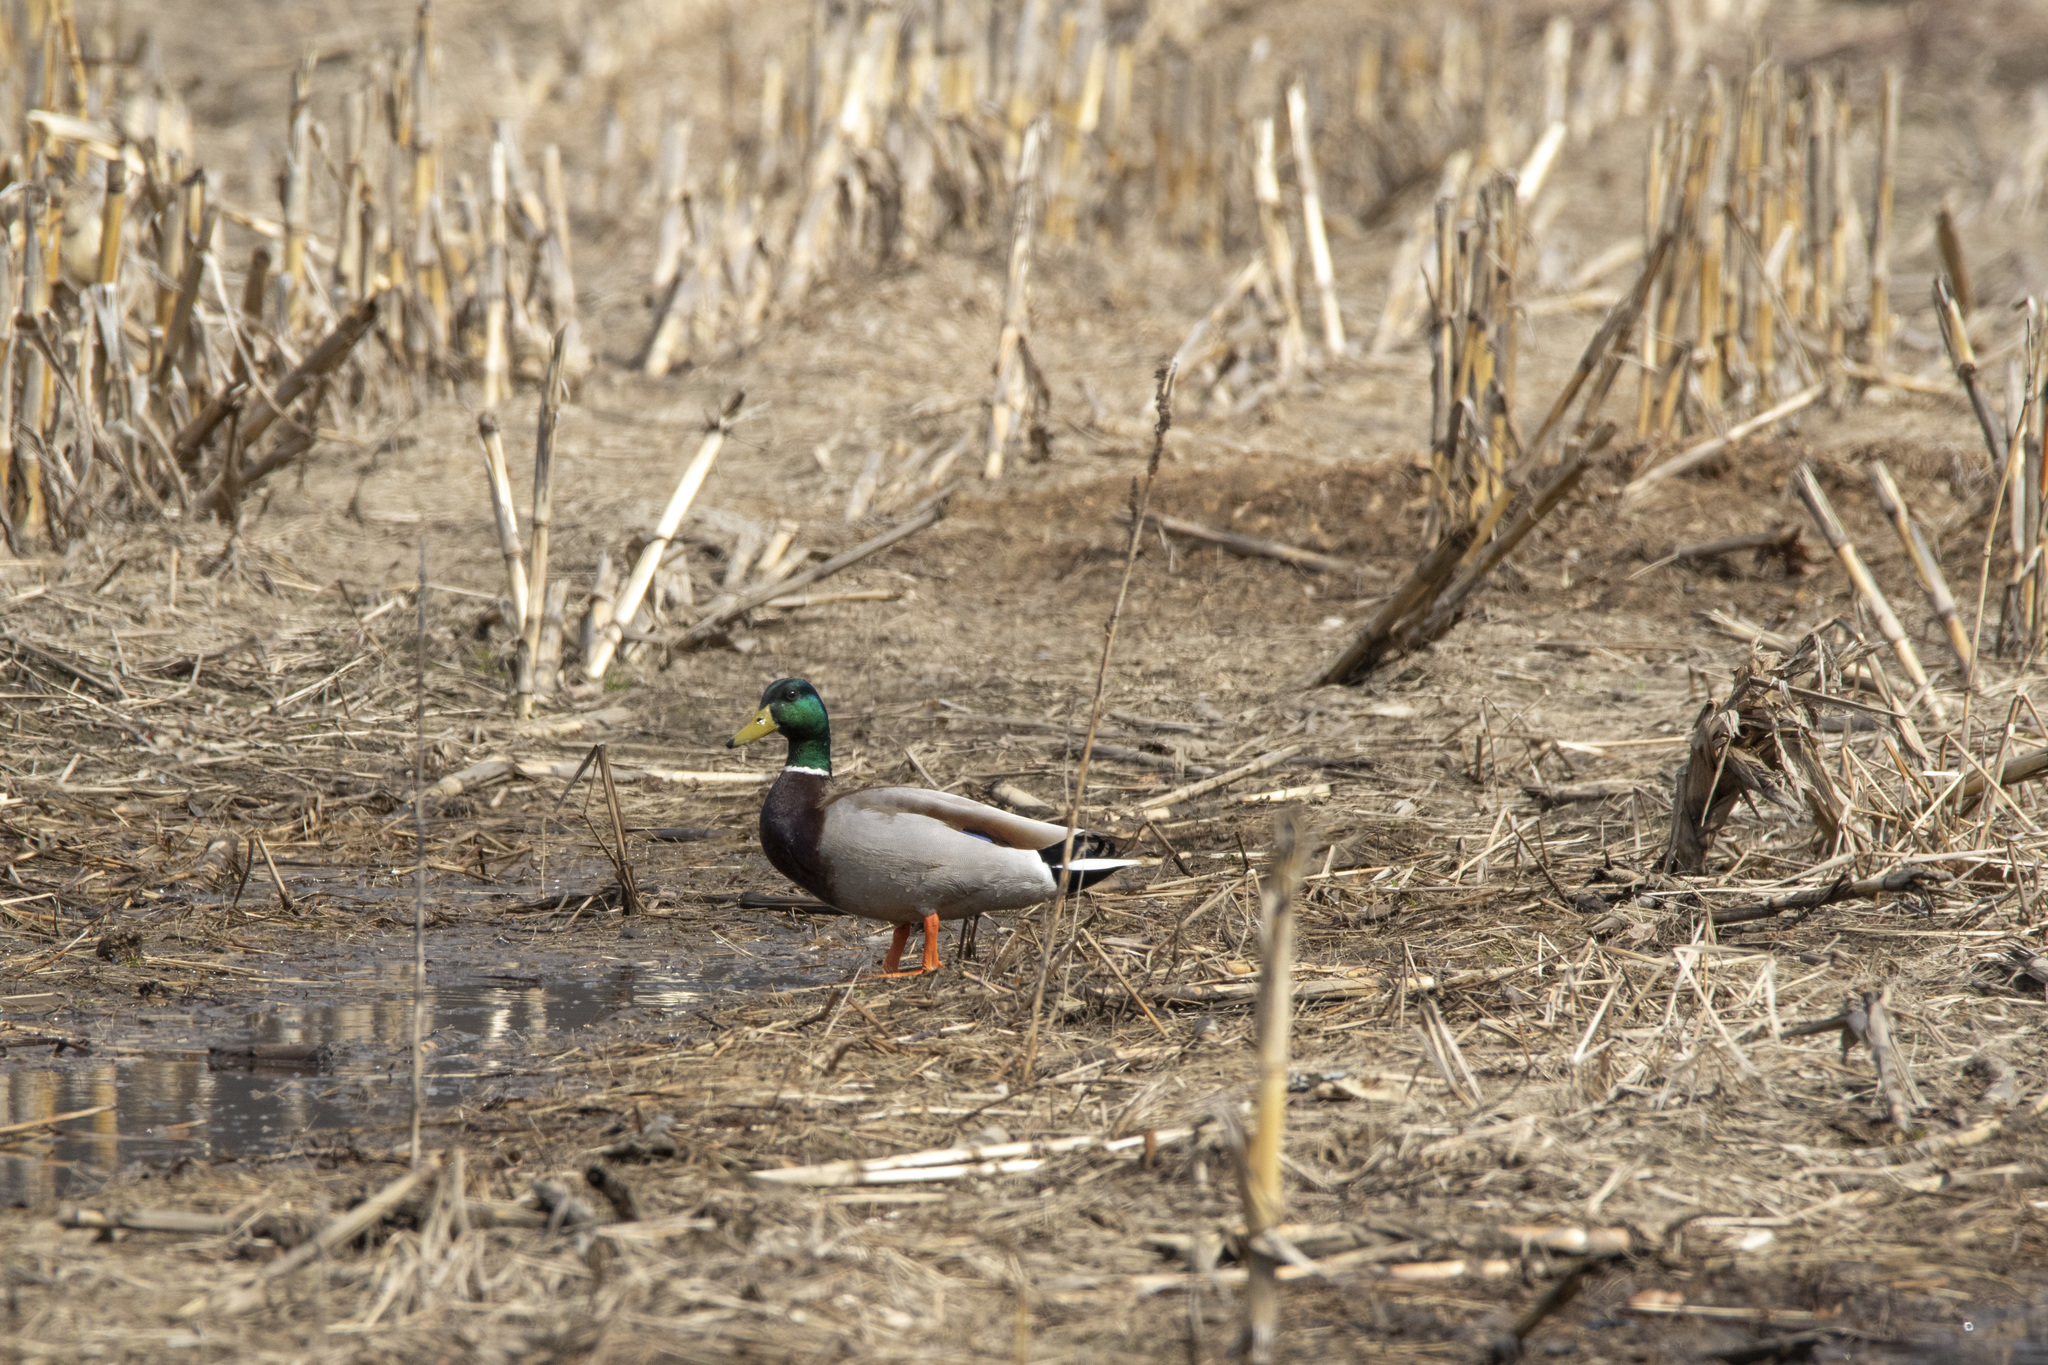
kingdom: Animalia
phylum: Chordata
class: Aves
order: Anseriformes
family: Anatidae
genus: Anas
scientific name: Anas platyrhynchos
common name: Mallard
